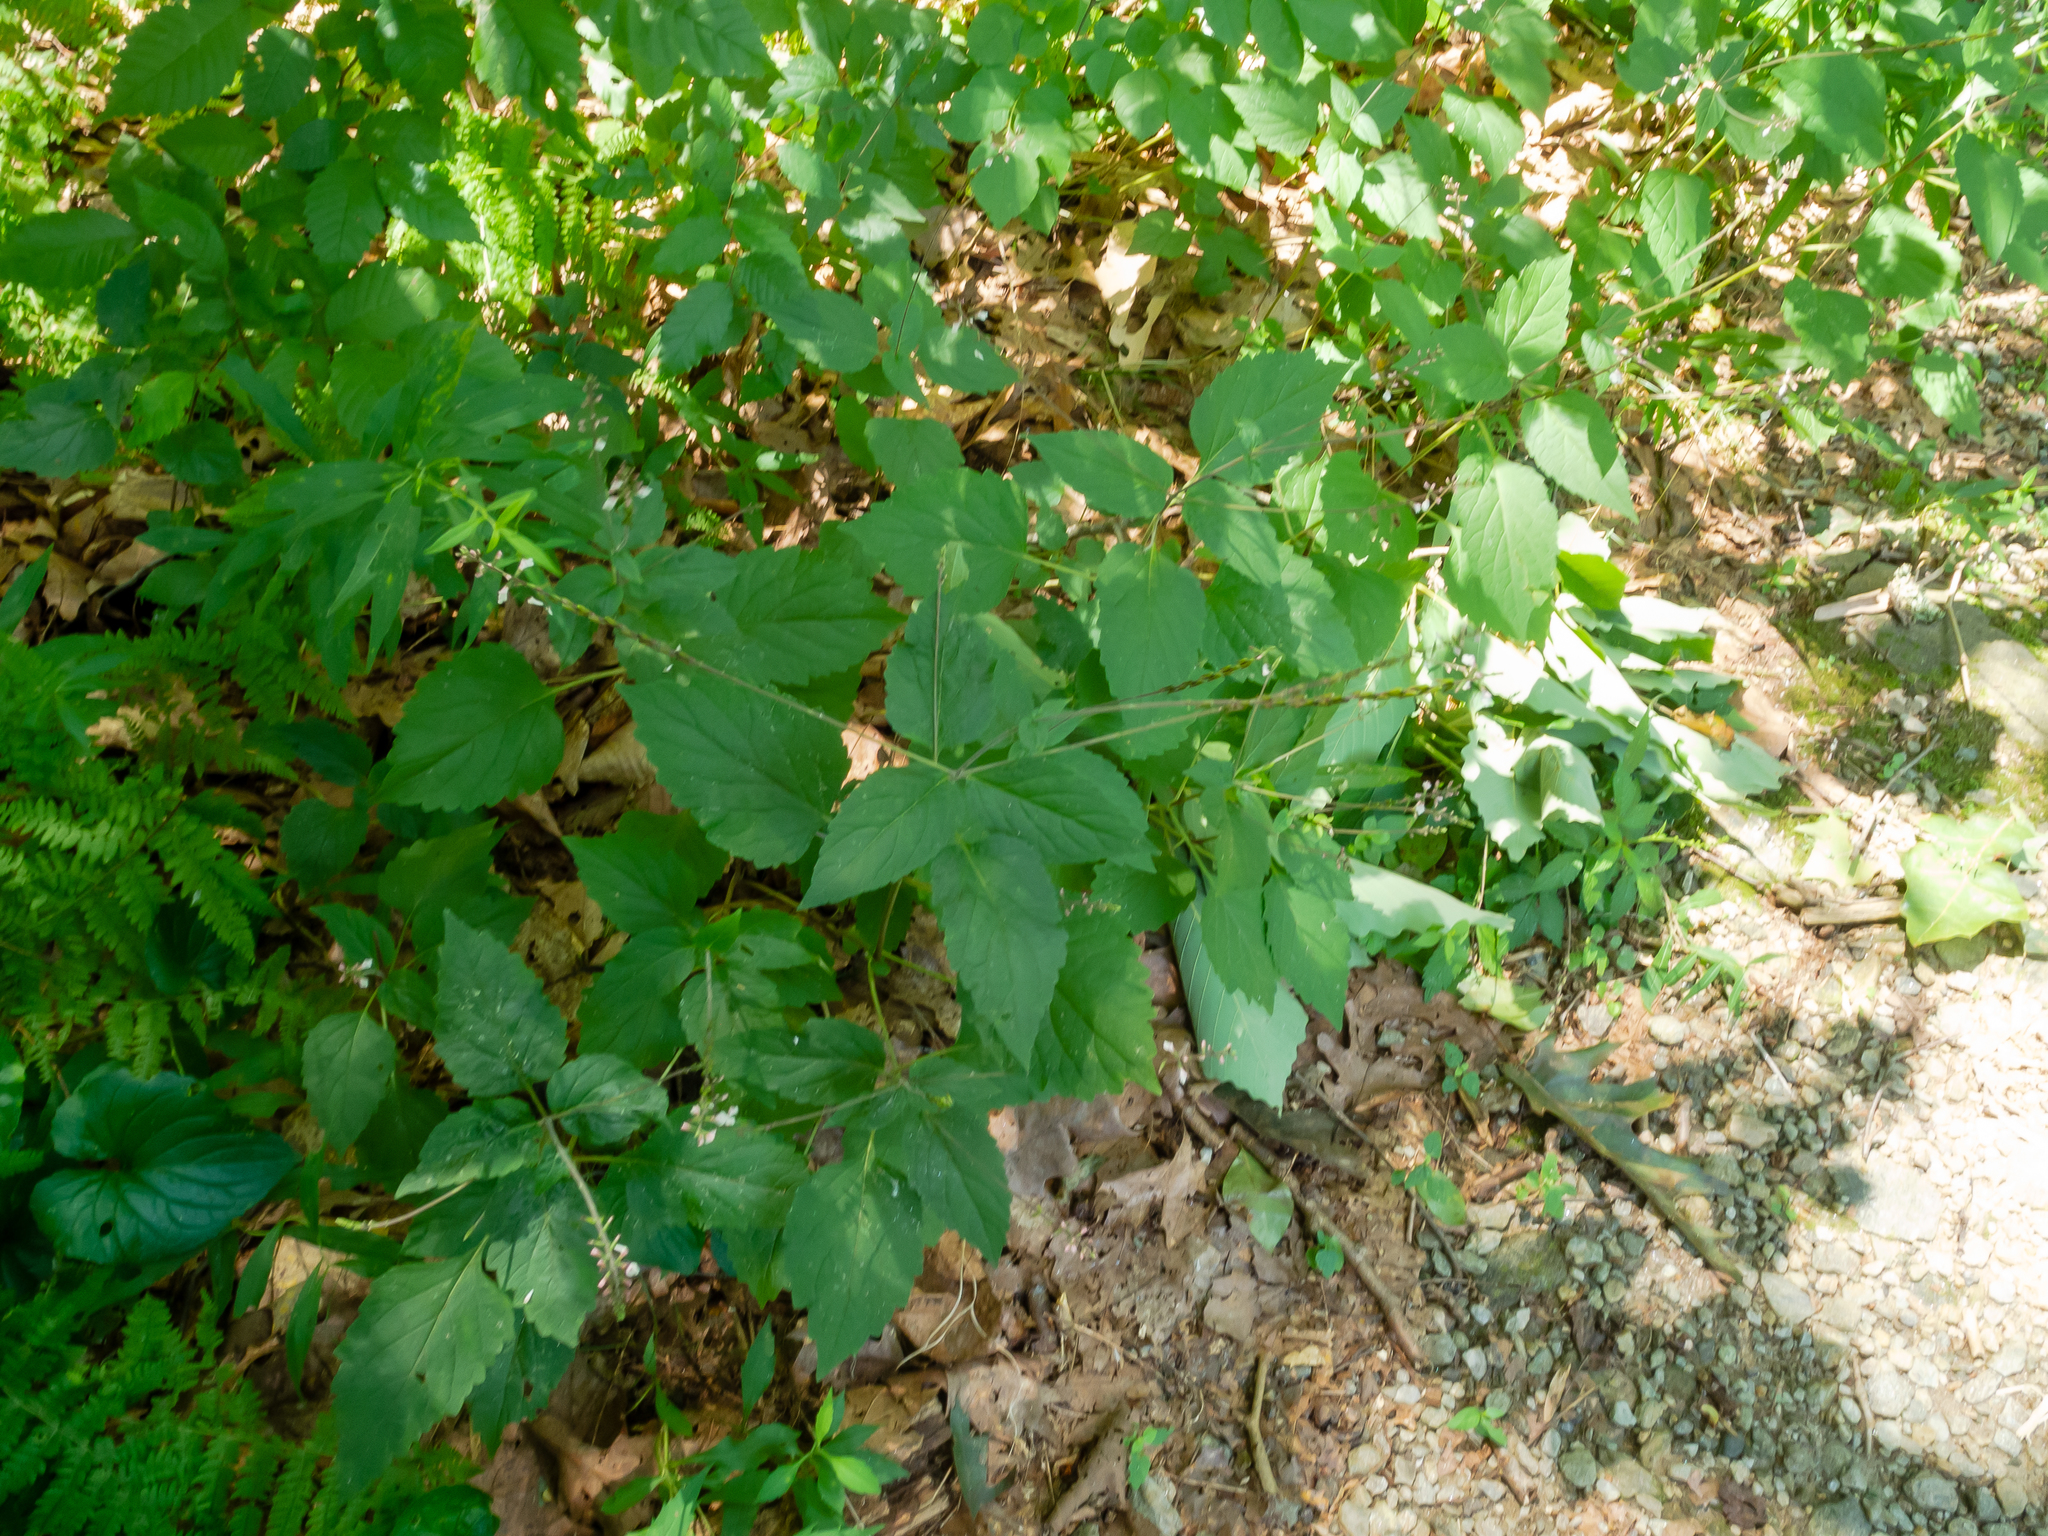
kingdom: Plantae
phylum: Tracheophyta
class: Magnoliopsida
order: Lamiales
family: Phrymaceae
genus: Phryma
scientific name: Phryma leptostachya
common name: American lopseed
